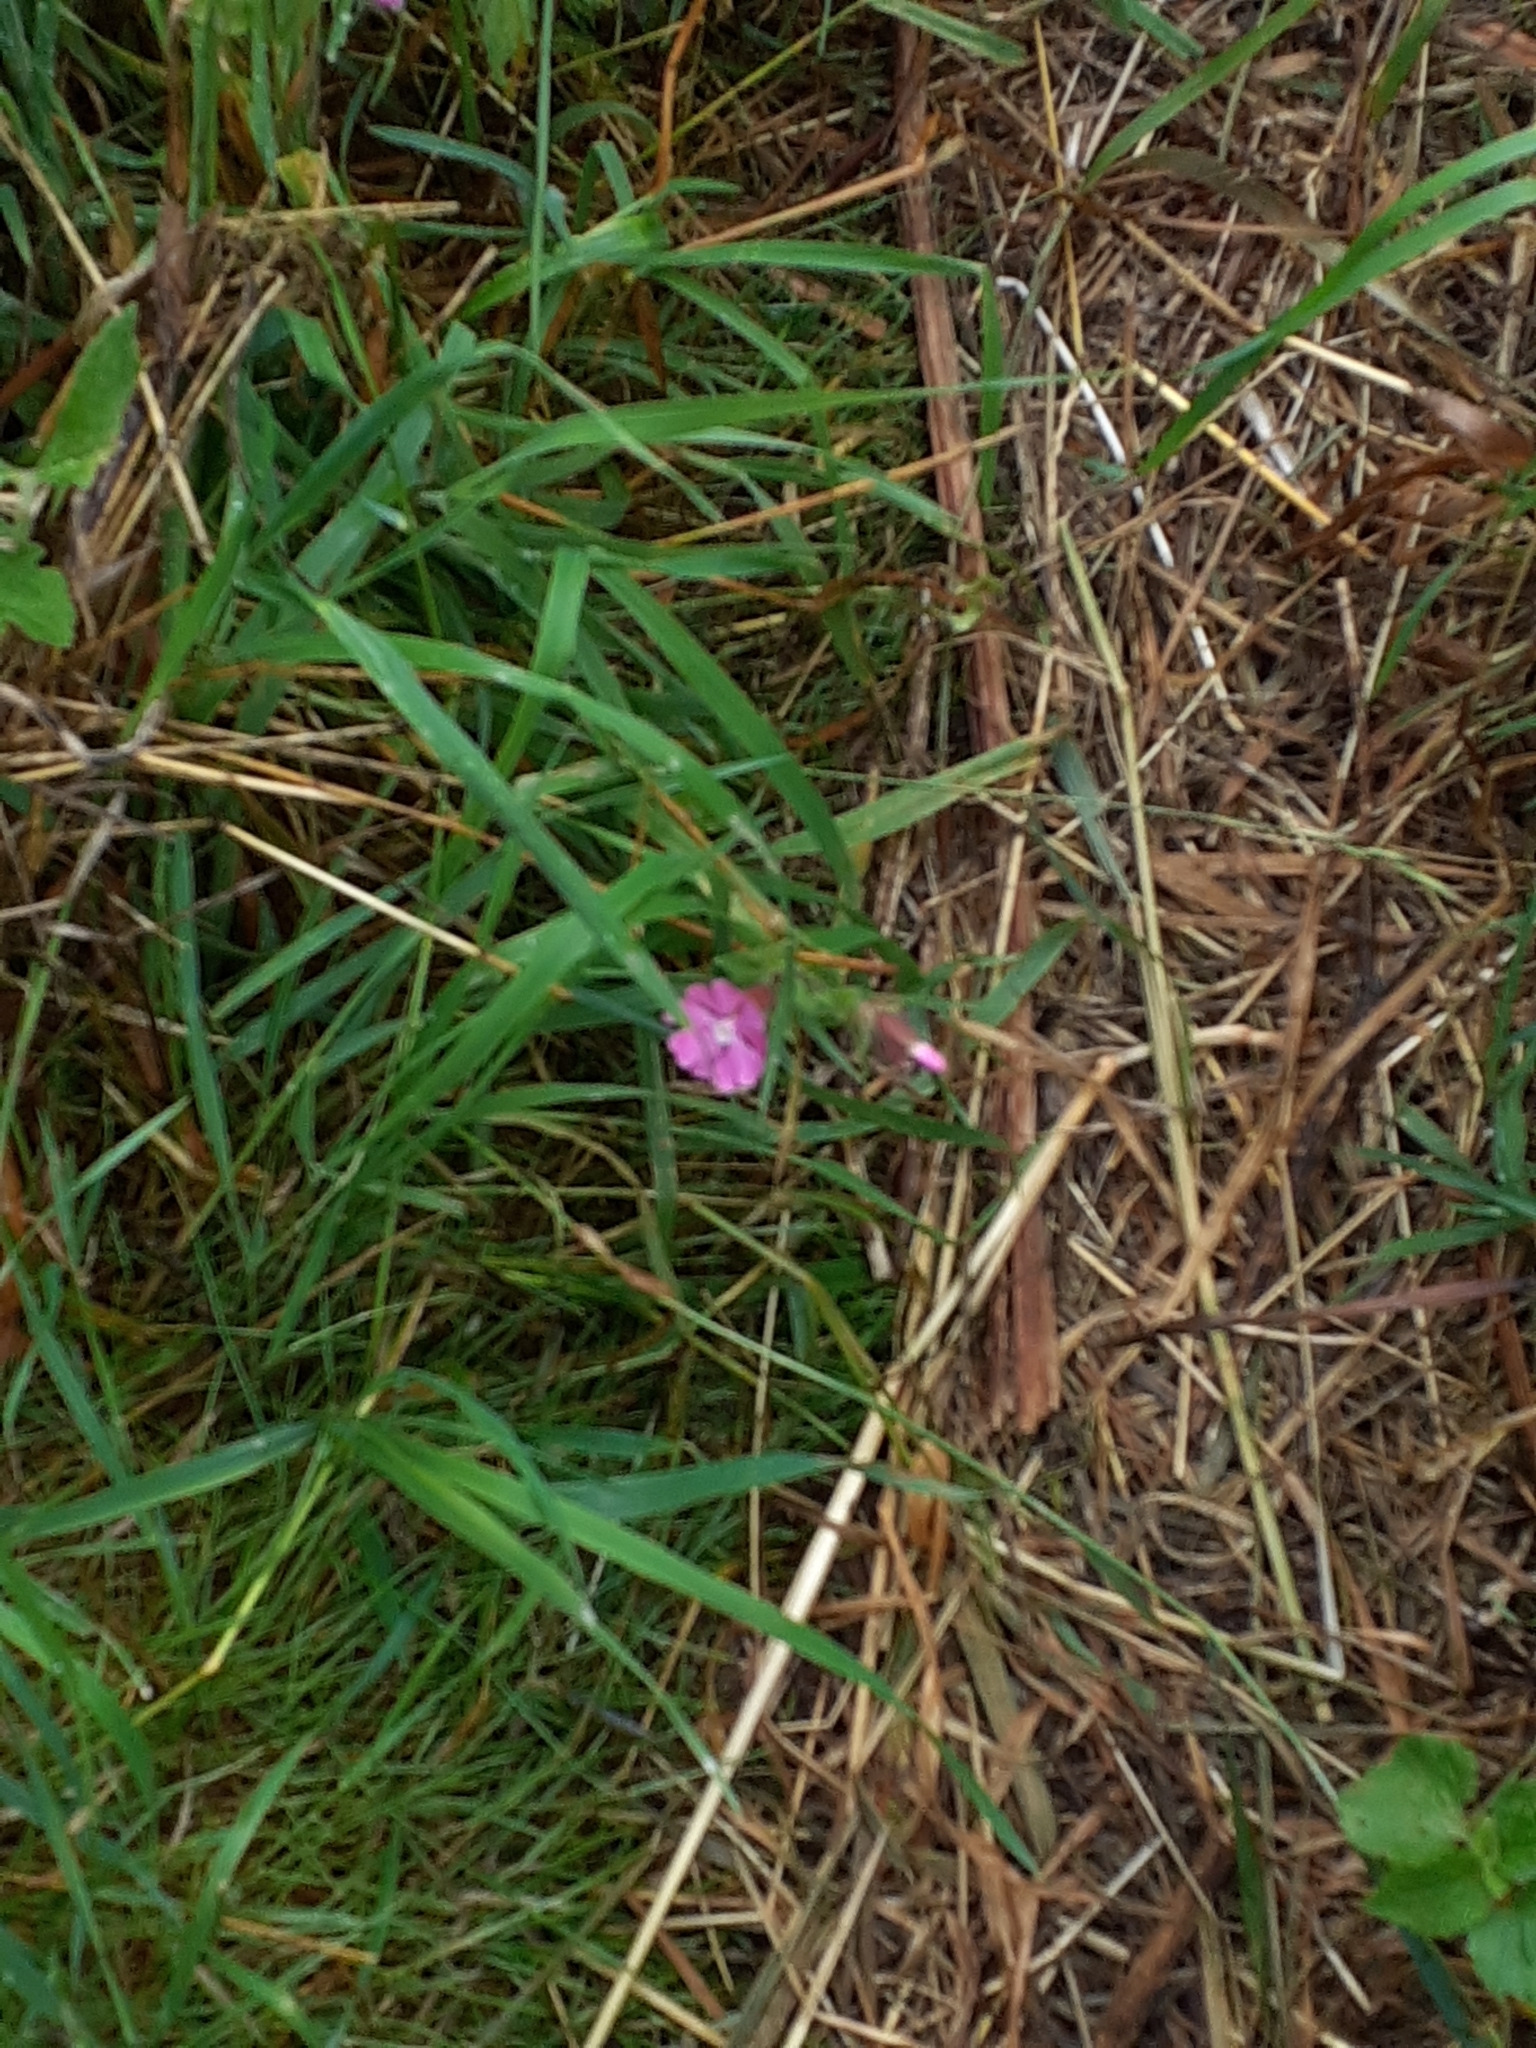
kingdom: Plantae
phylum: Tracheophyta
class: Magnoliopsida
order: Caryophyllales
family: Caryophyllaceae
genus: Silene
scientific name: Silene dioica
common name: Red campion
